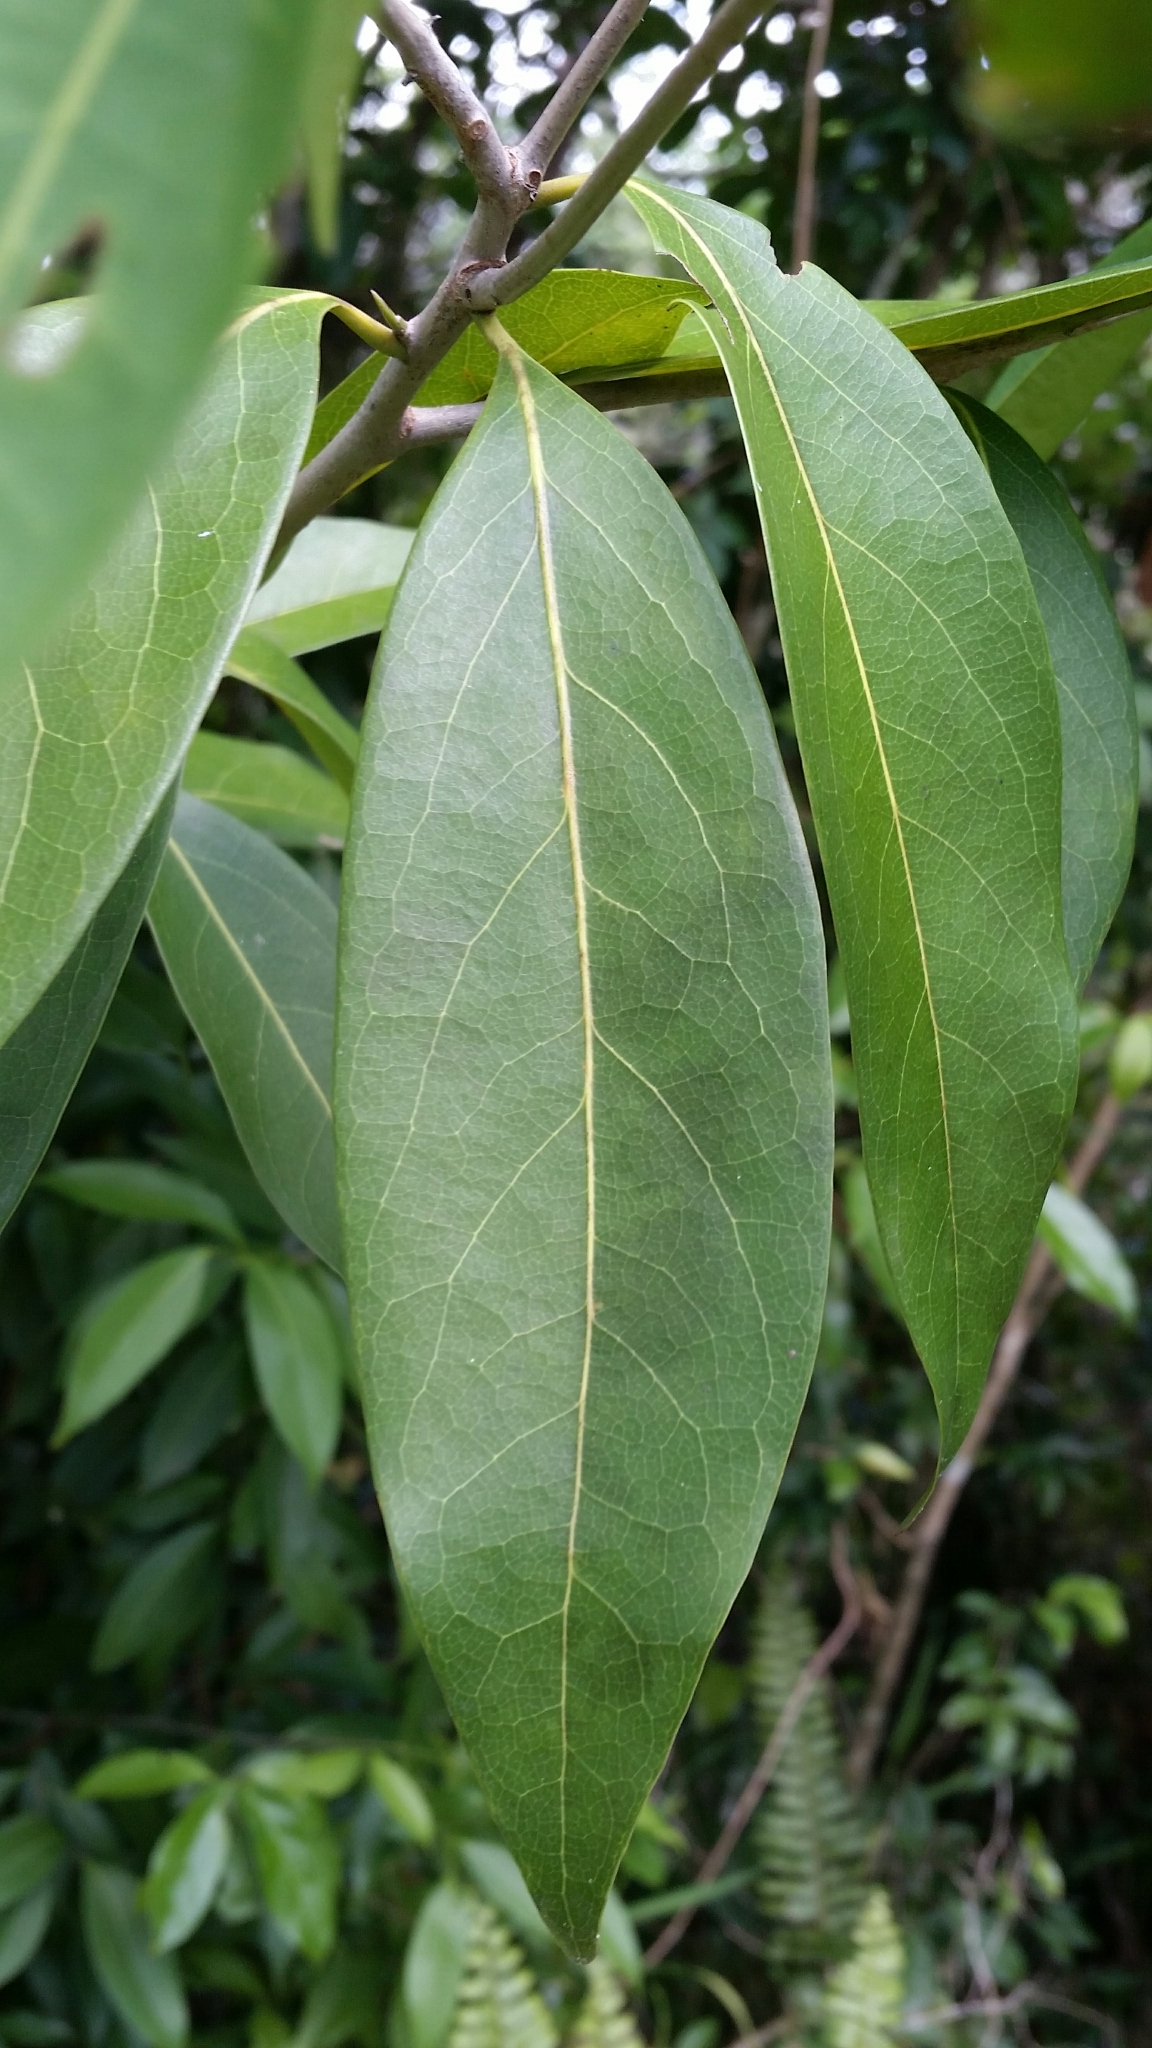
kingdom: Plantae
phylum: Tracheophyta
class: Magnoliopsida
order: Laurales
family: Lauraceae
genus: Damburneya
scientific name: Damburneya
